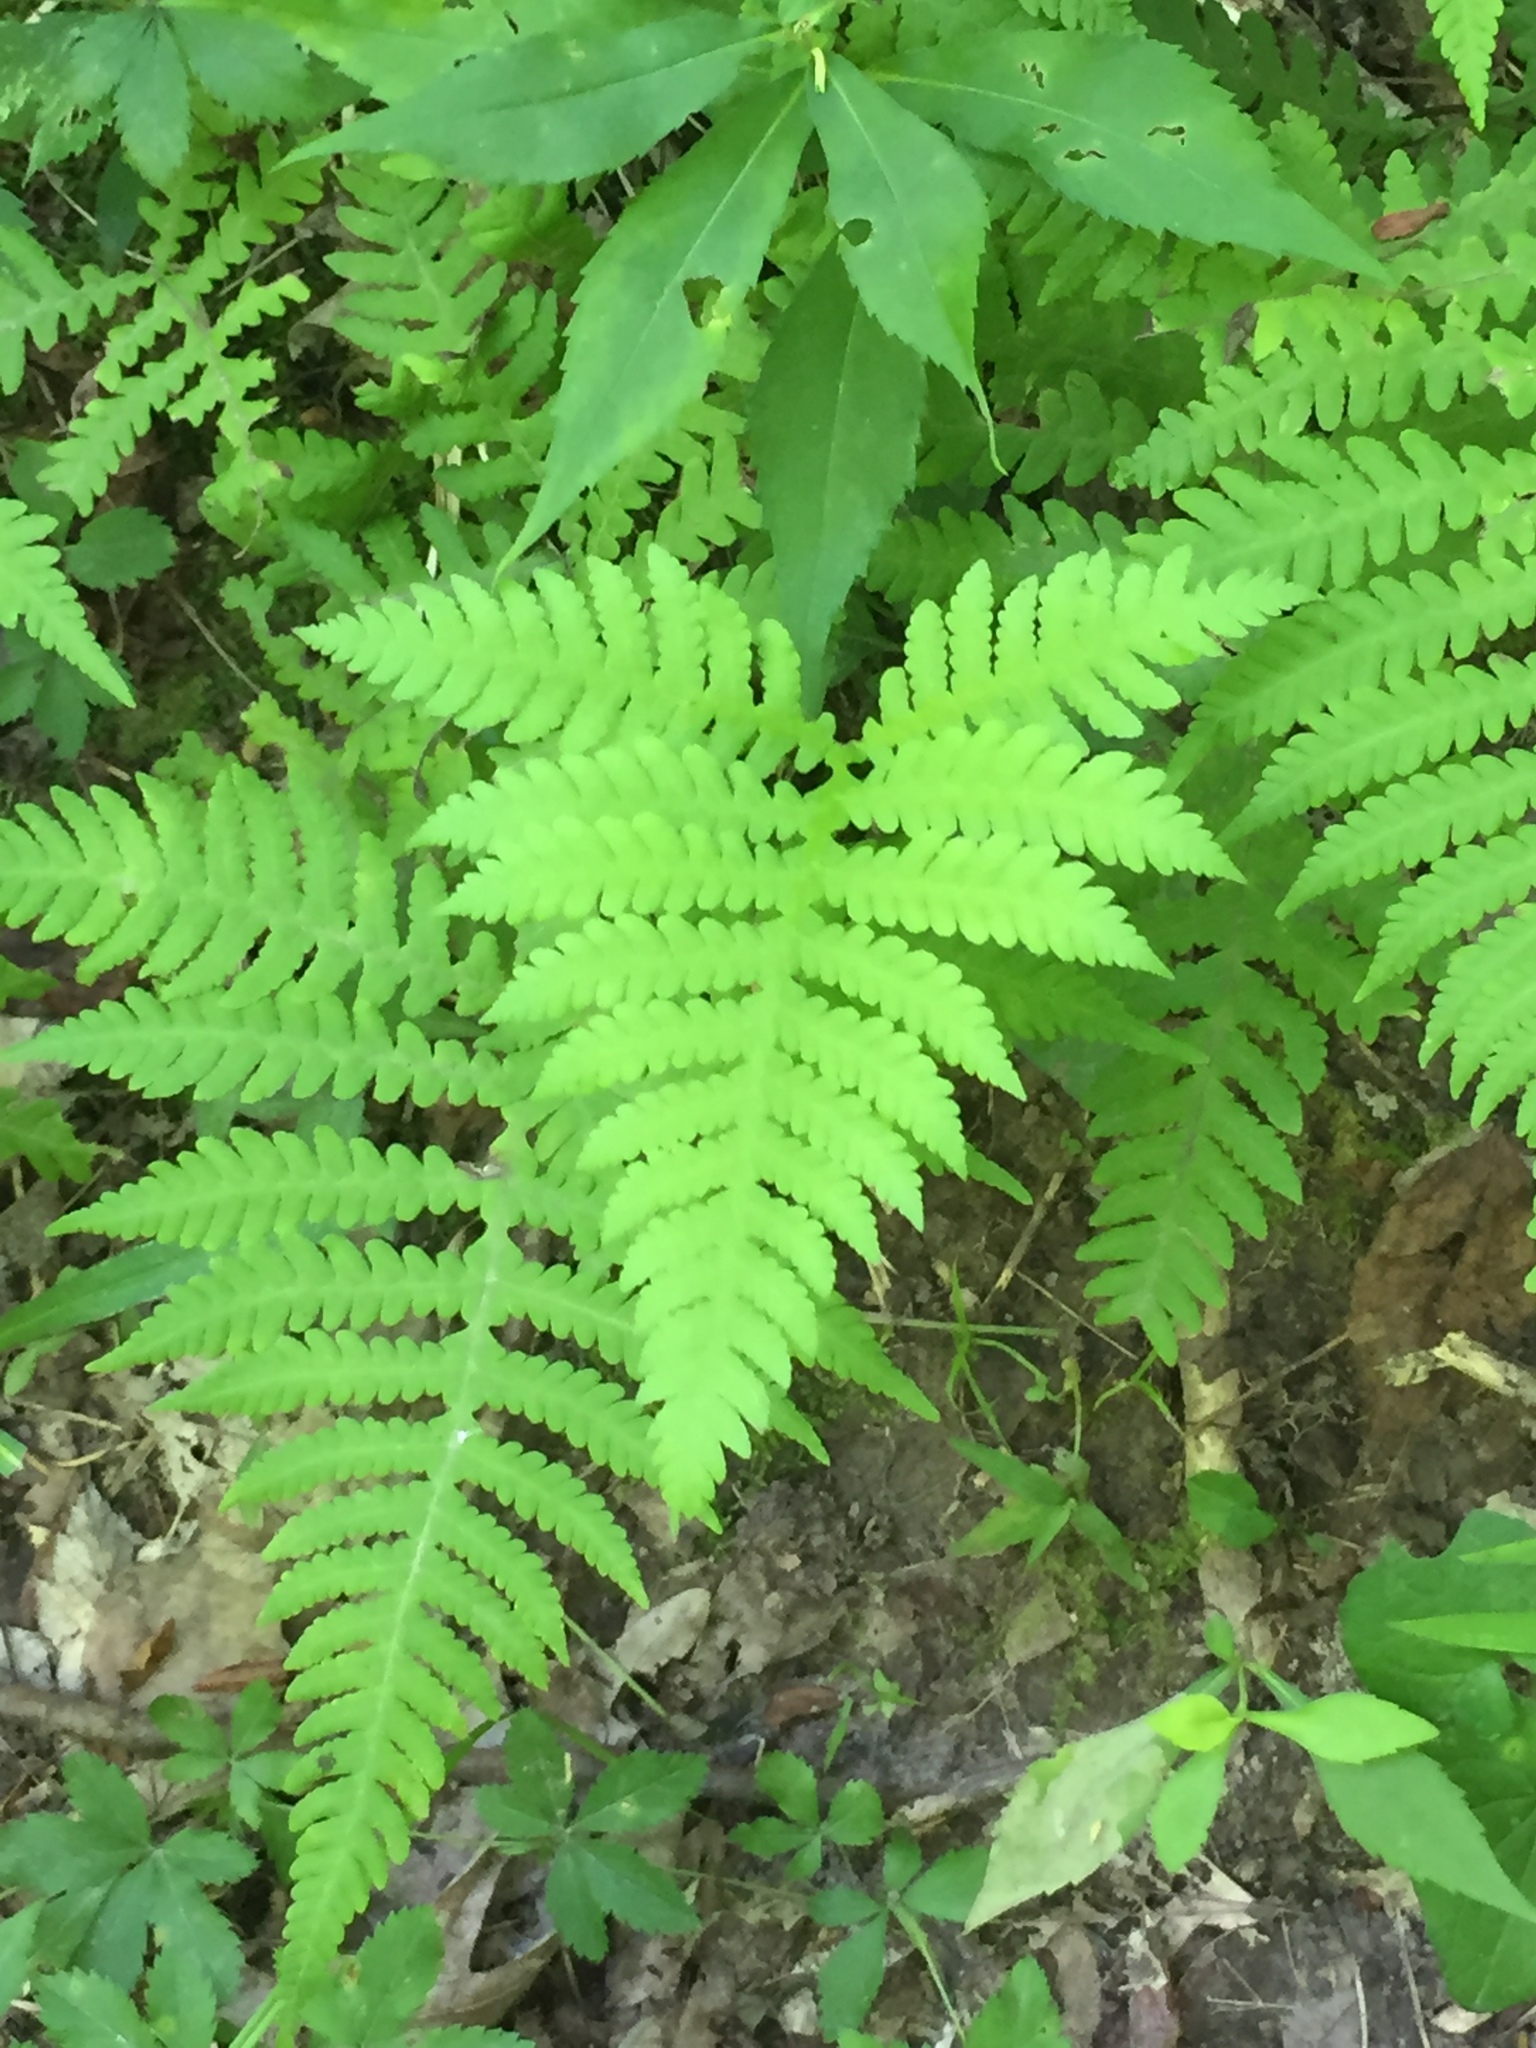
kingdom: Plantae
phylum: Tracheophyta
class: Polypodiopsida
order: Polypodiales
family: Thelypteridaceae
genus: Phegopteris
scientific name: Phegopteris hexagonoptera
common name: Broad beech fern
